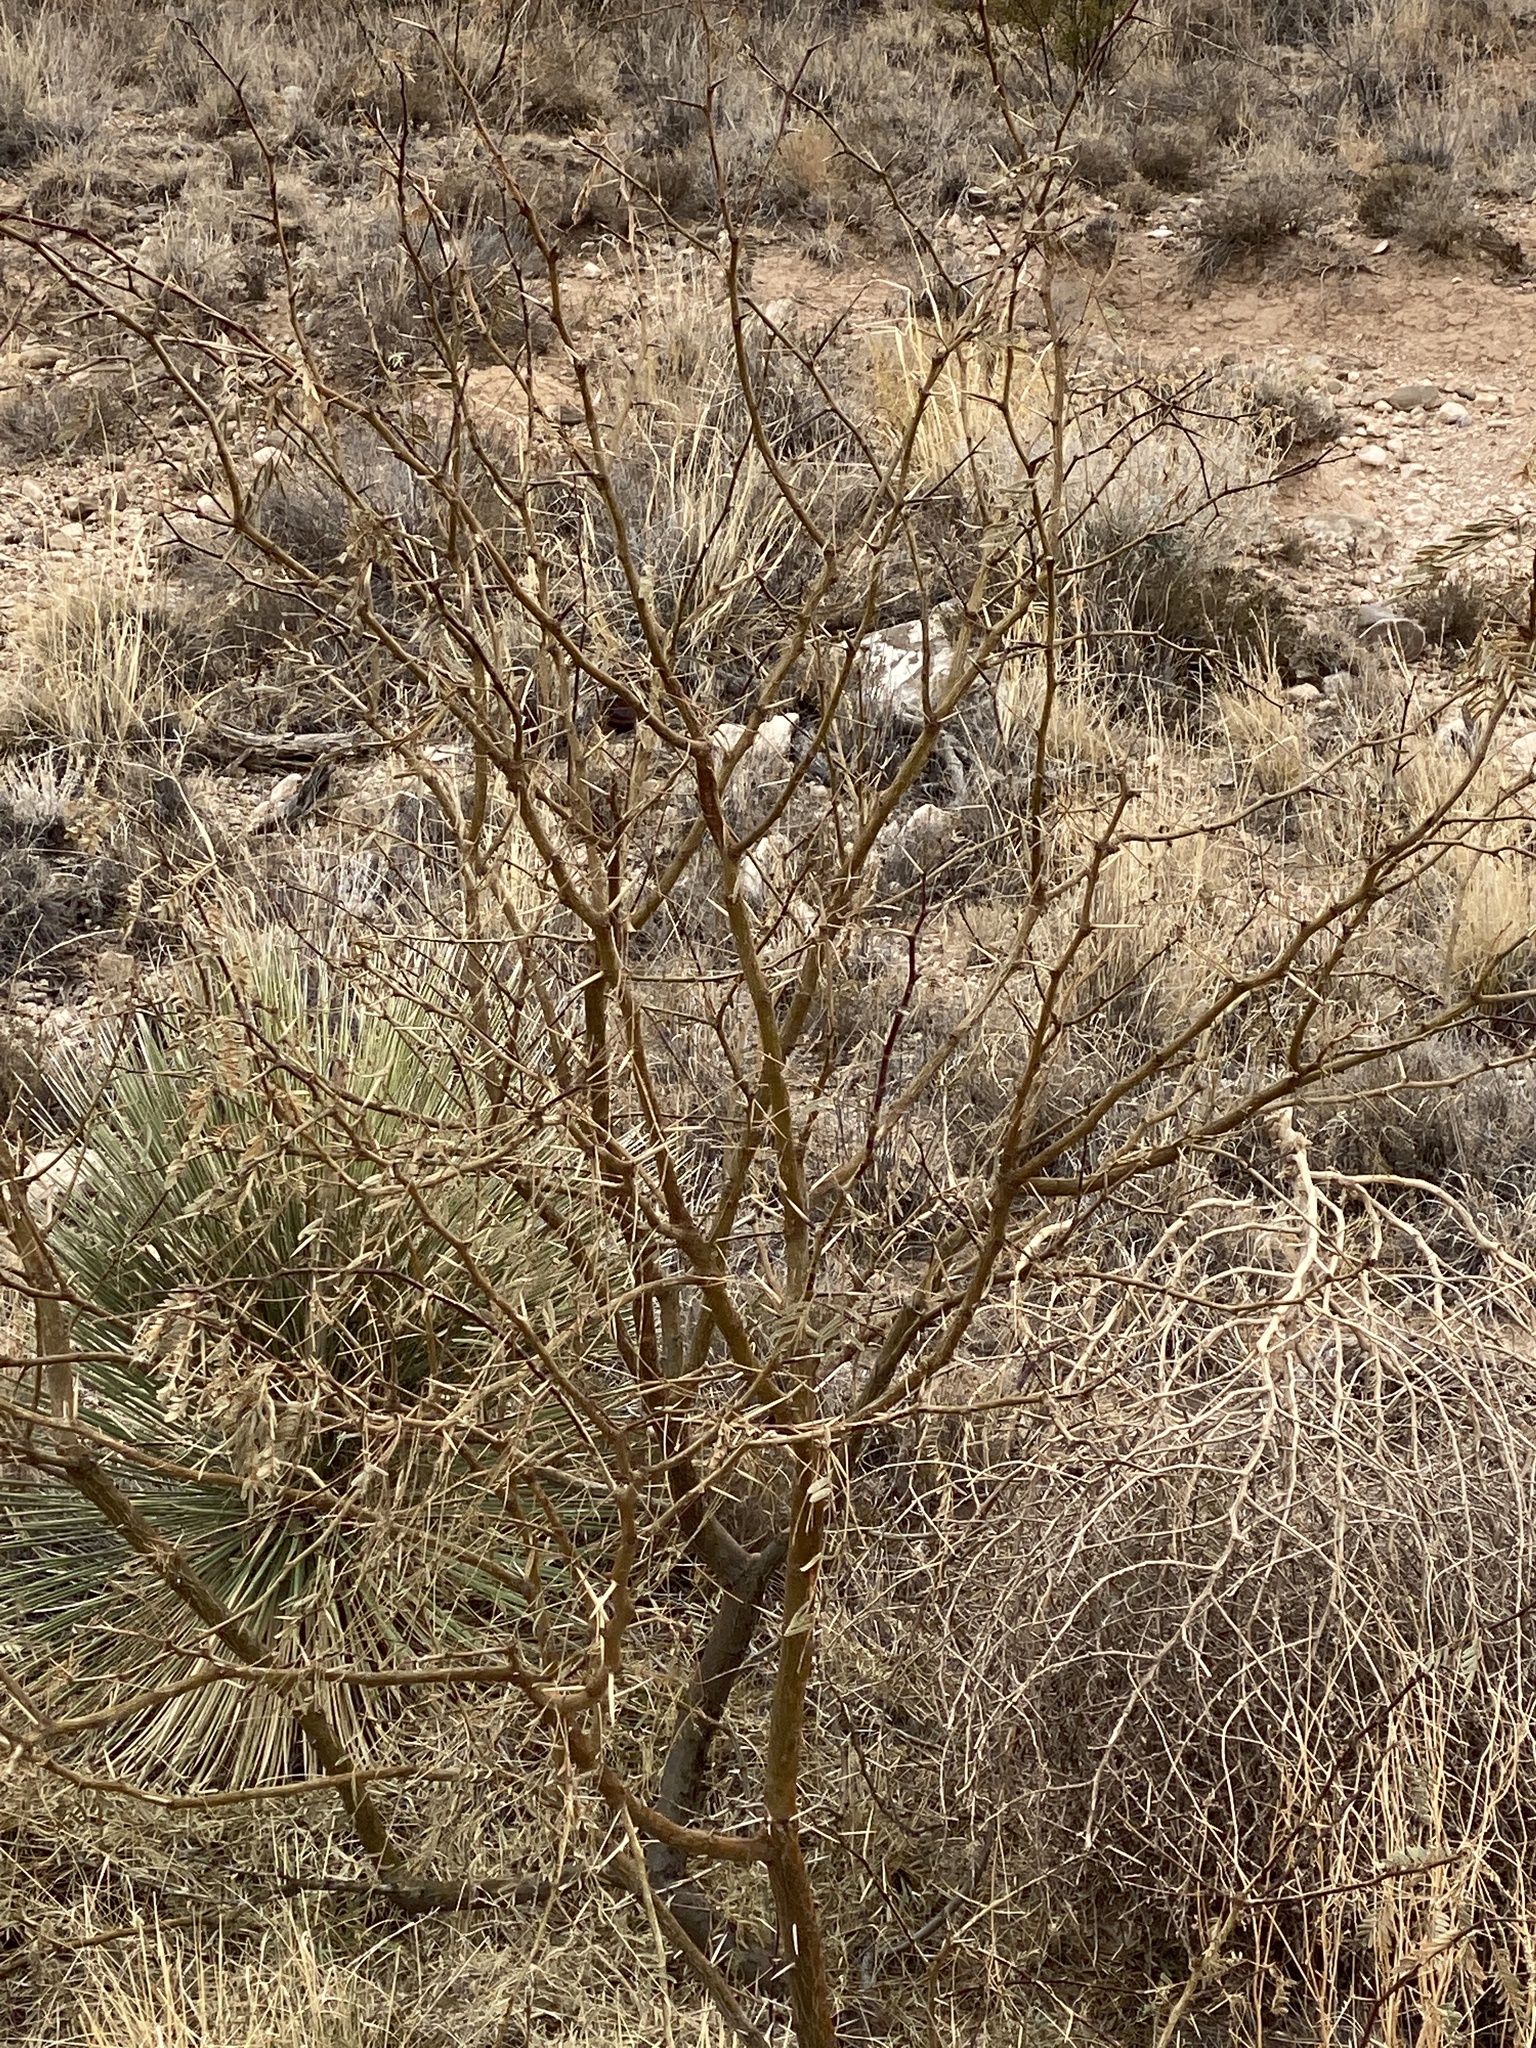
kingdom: Plantae
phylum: Tracheophyta
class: Magnoliopsida
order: Fabales
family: Fabaceae
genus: Prosopis
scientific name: Prosopis glandulosa
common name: Honey mesquite
